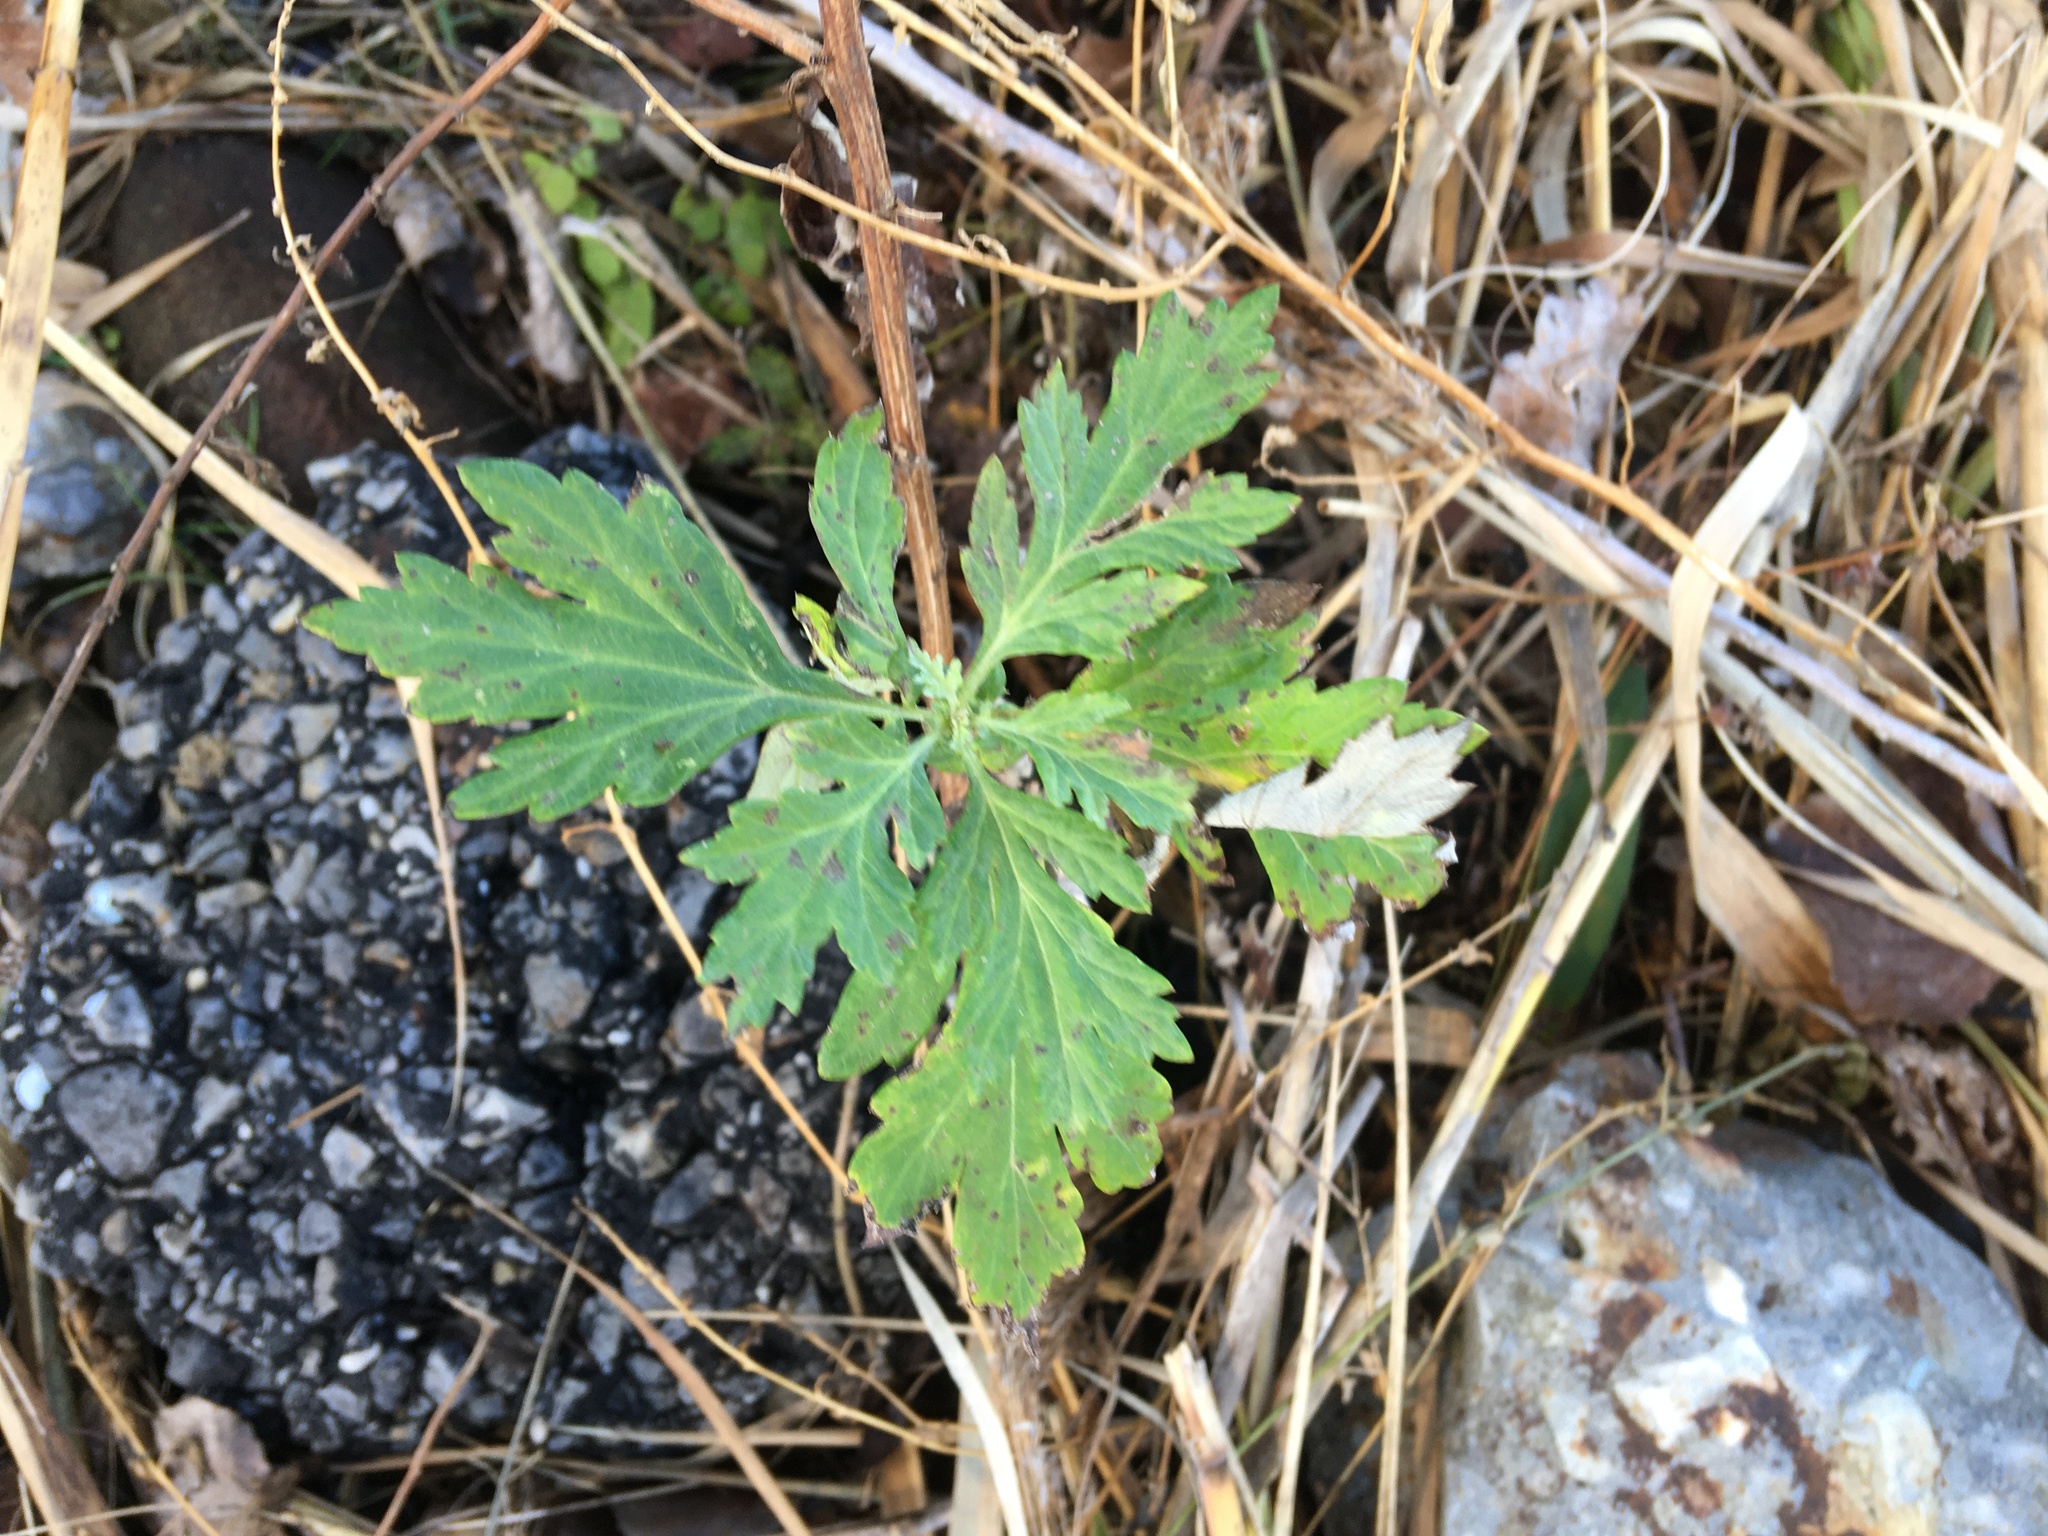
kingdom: Plantae
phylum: Tracheophyta
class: Magnoliopsida
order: Asterales
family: Asteraceae
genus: Artemisia
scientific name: Artemisia vulgaris
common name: Mugwort
